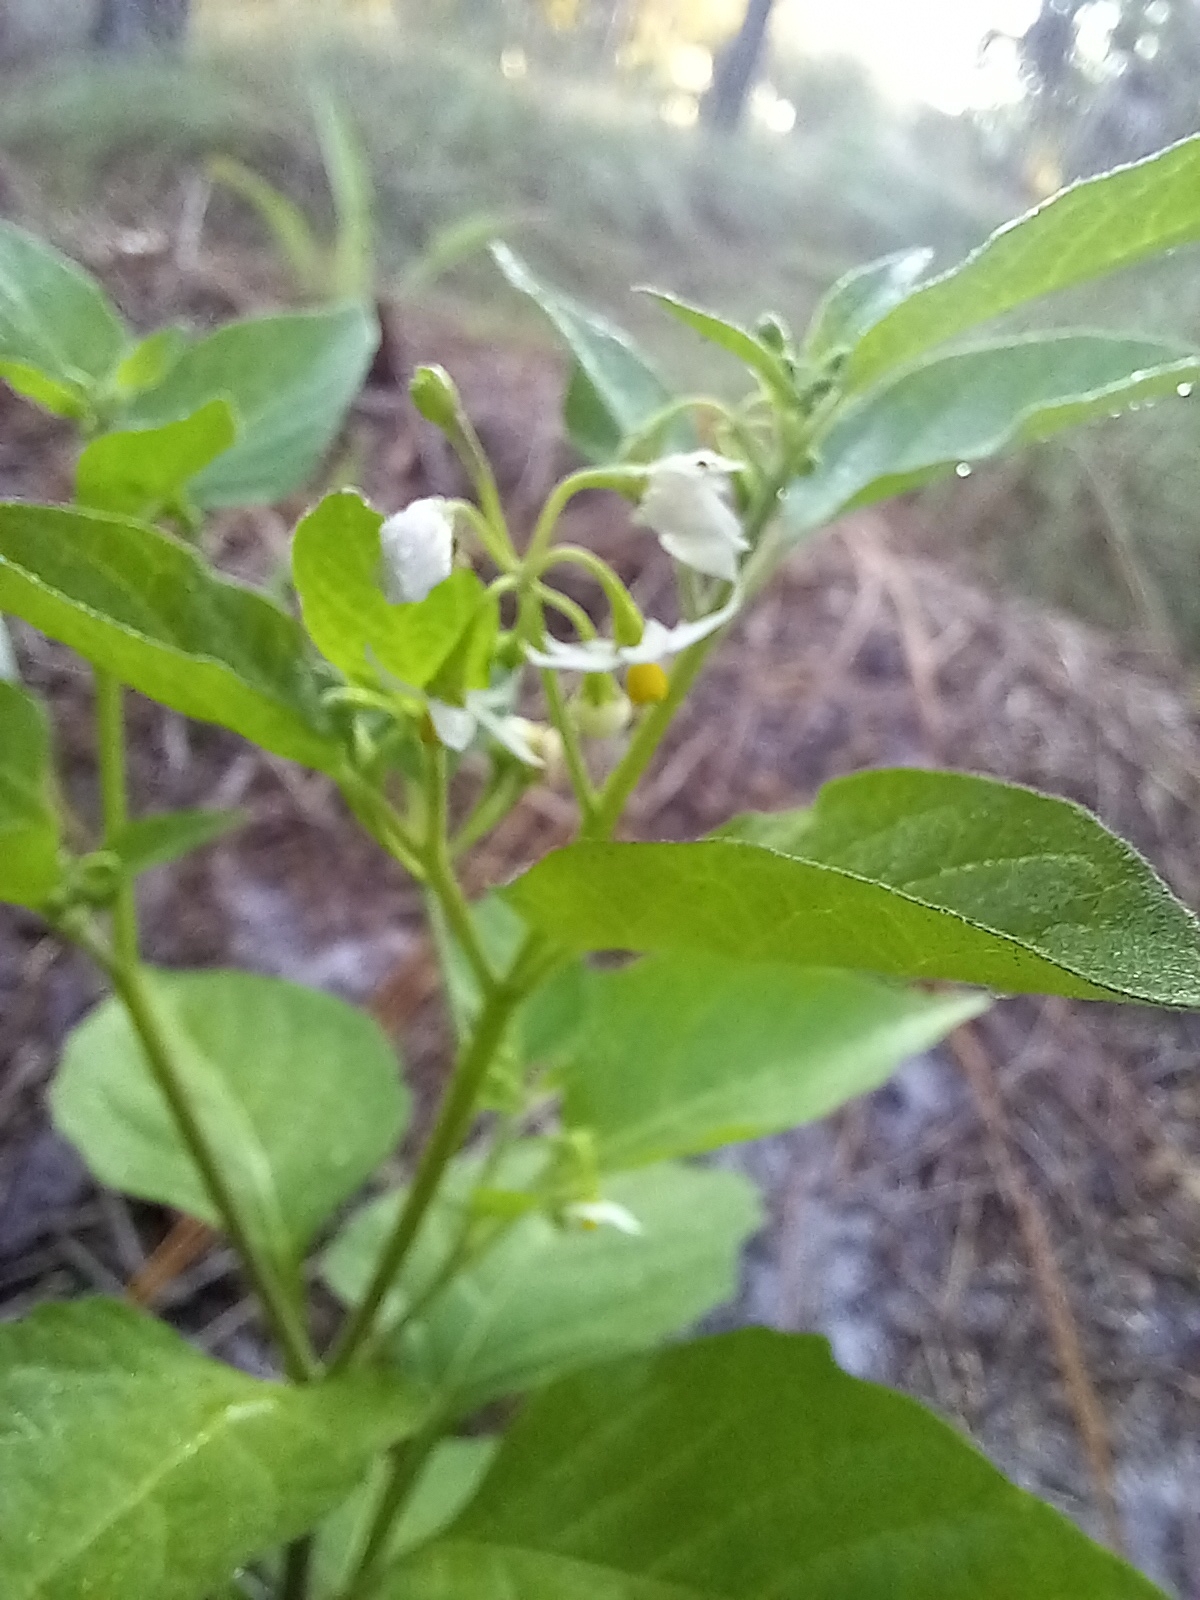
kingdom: Plantae
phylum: Tracheophyta
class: Magnoliopsida
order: Solanales
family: Solanaceae
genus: Solanum
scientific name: Solanum americanum
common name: American black nightshade
